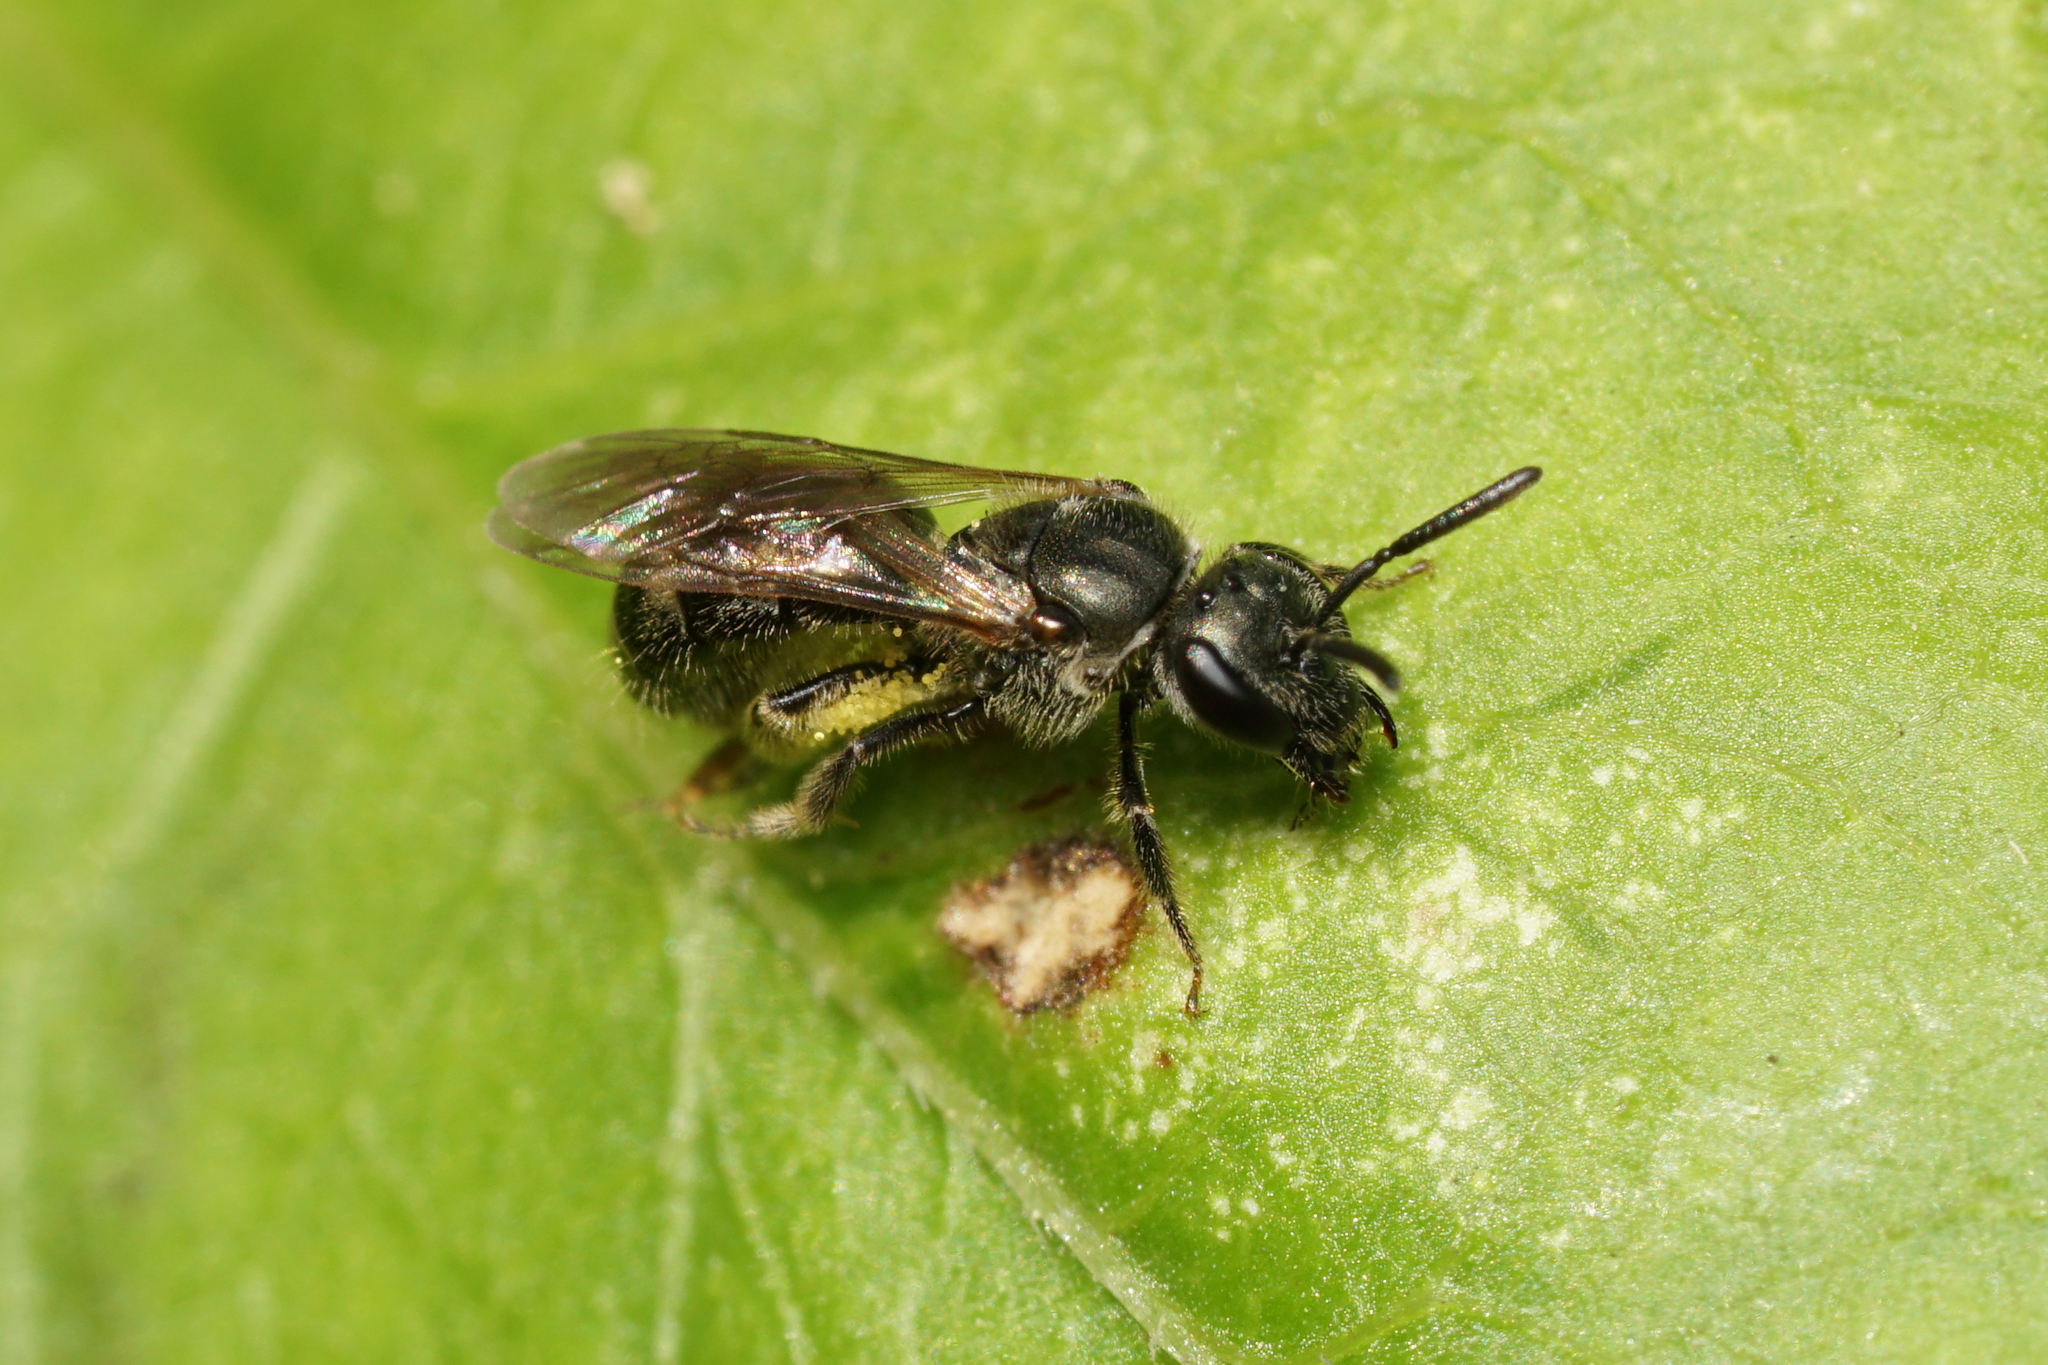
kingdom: Animalia
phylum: Arthropoda
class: Insecta
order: Hymenoptera
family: Halictidae
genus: Dialictus
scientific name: Dialictus
